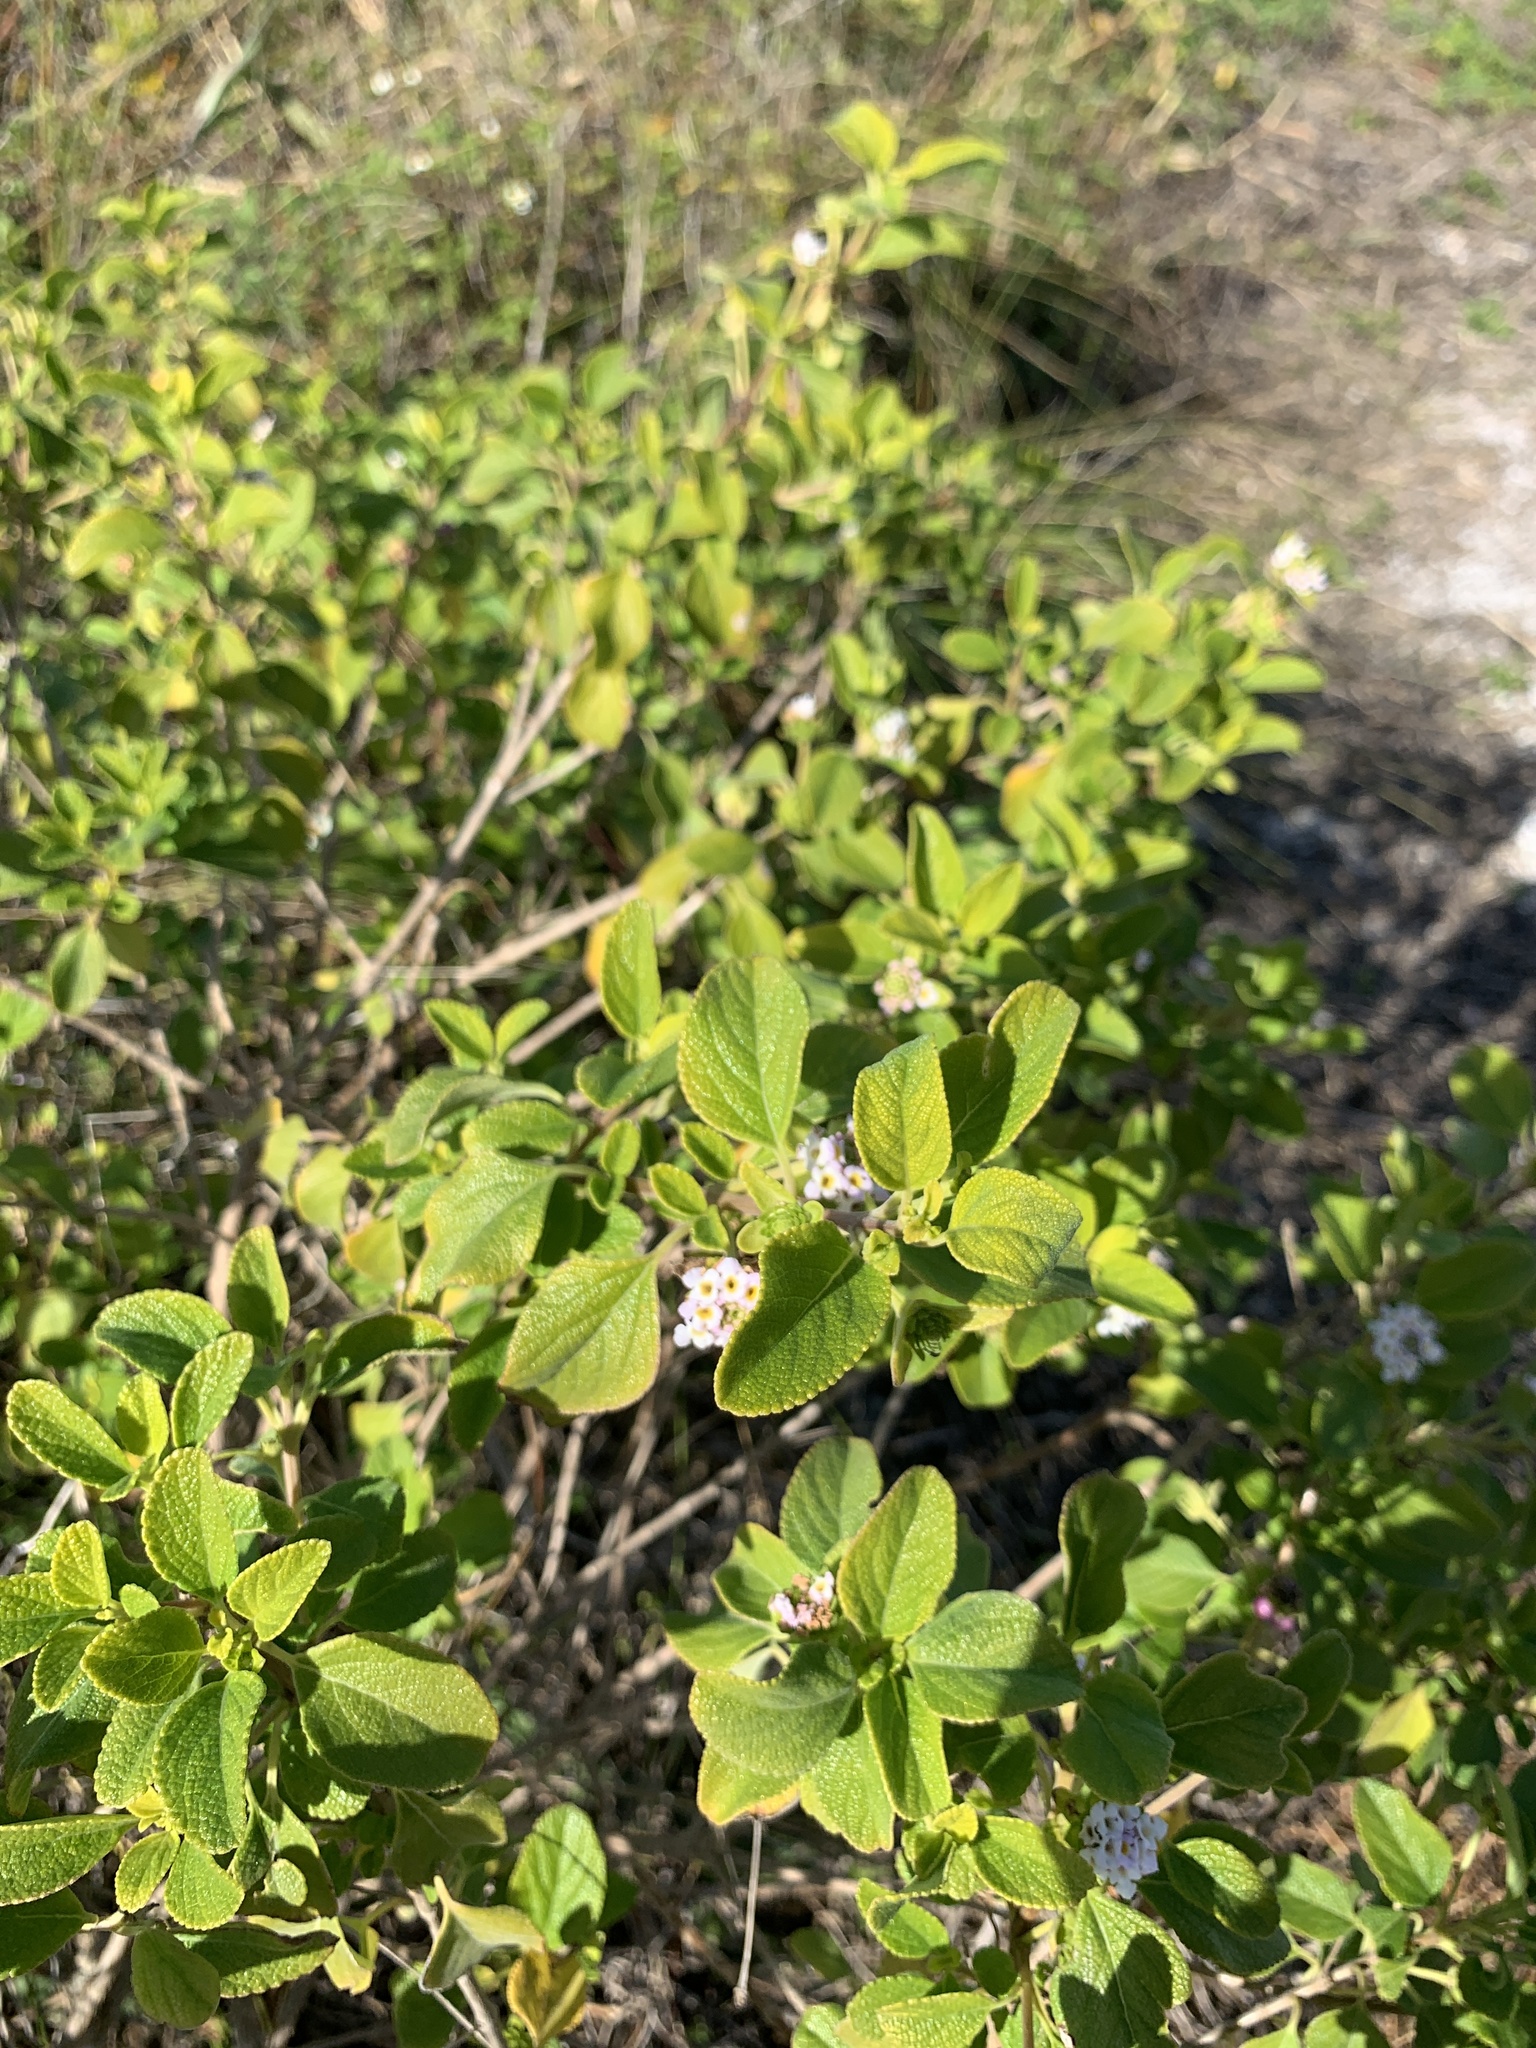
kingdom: Plantae
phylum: Tracheophyta
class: Magnoliopsida
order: Lamiales
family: Verbenaceae
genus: Lantana
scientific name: Lantana involucrata
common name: Black sage
